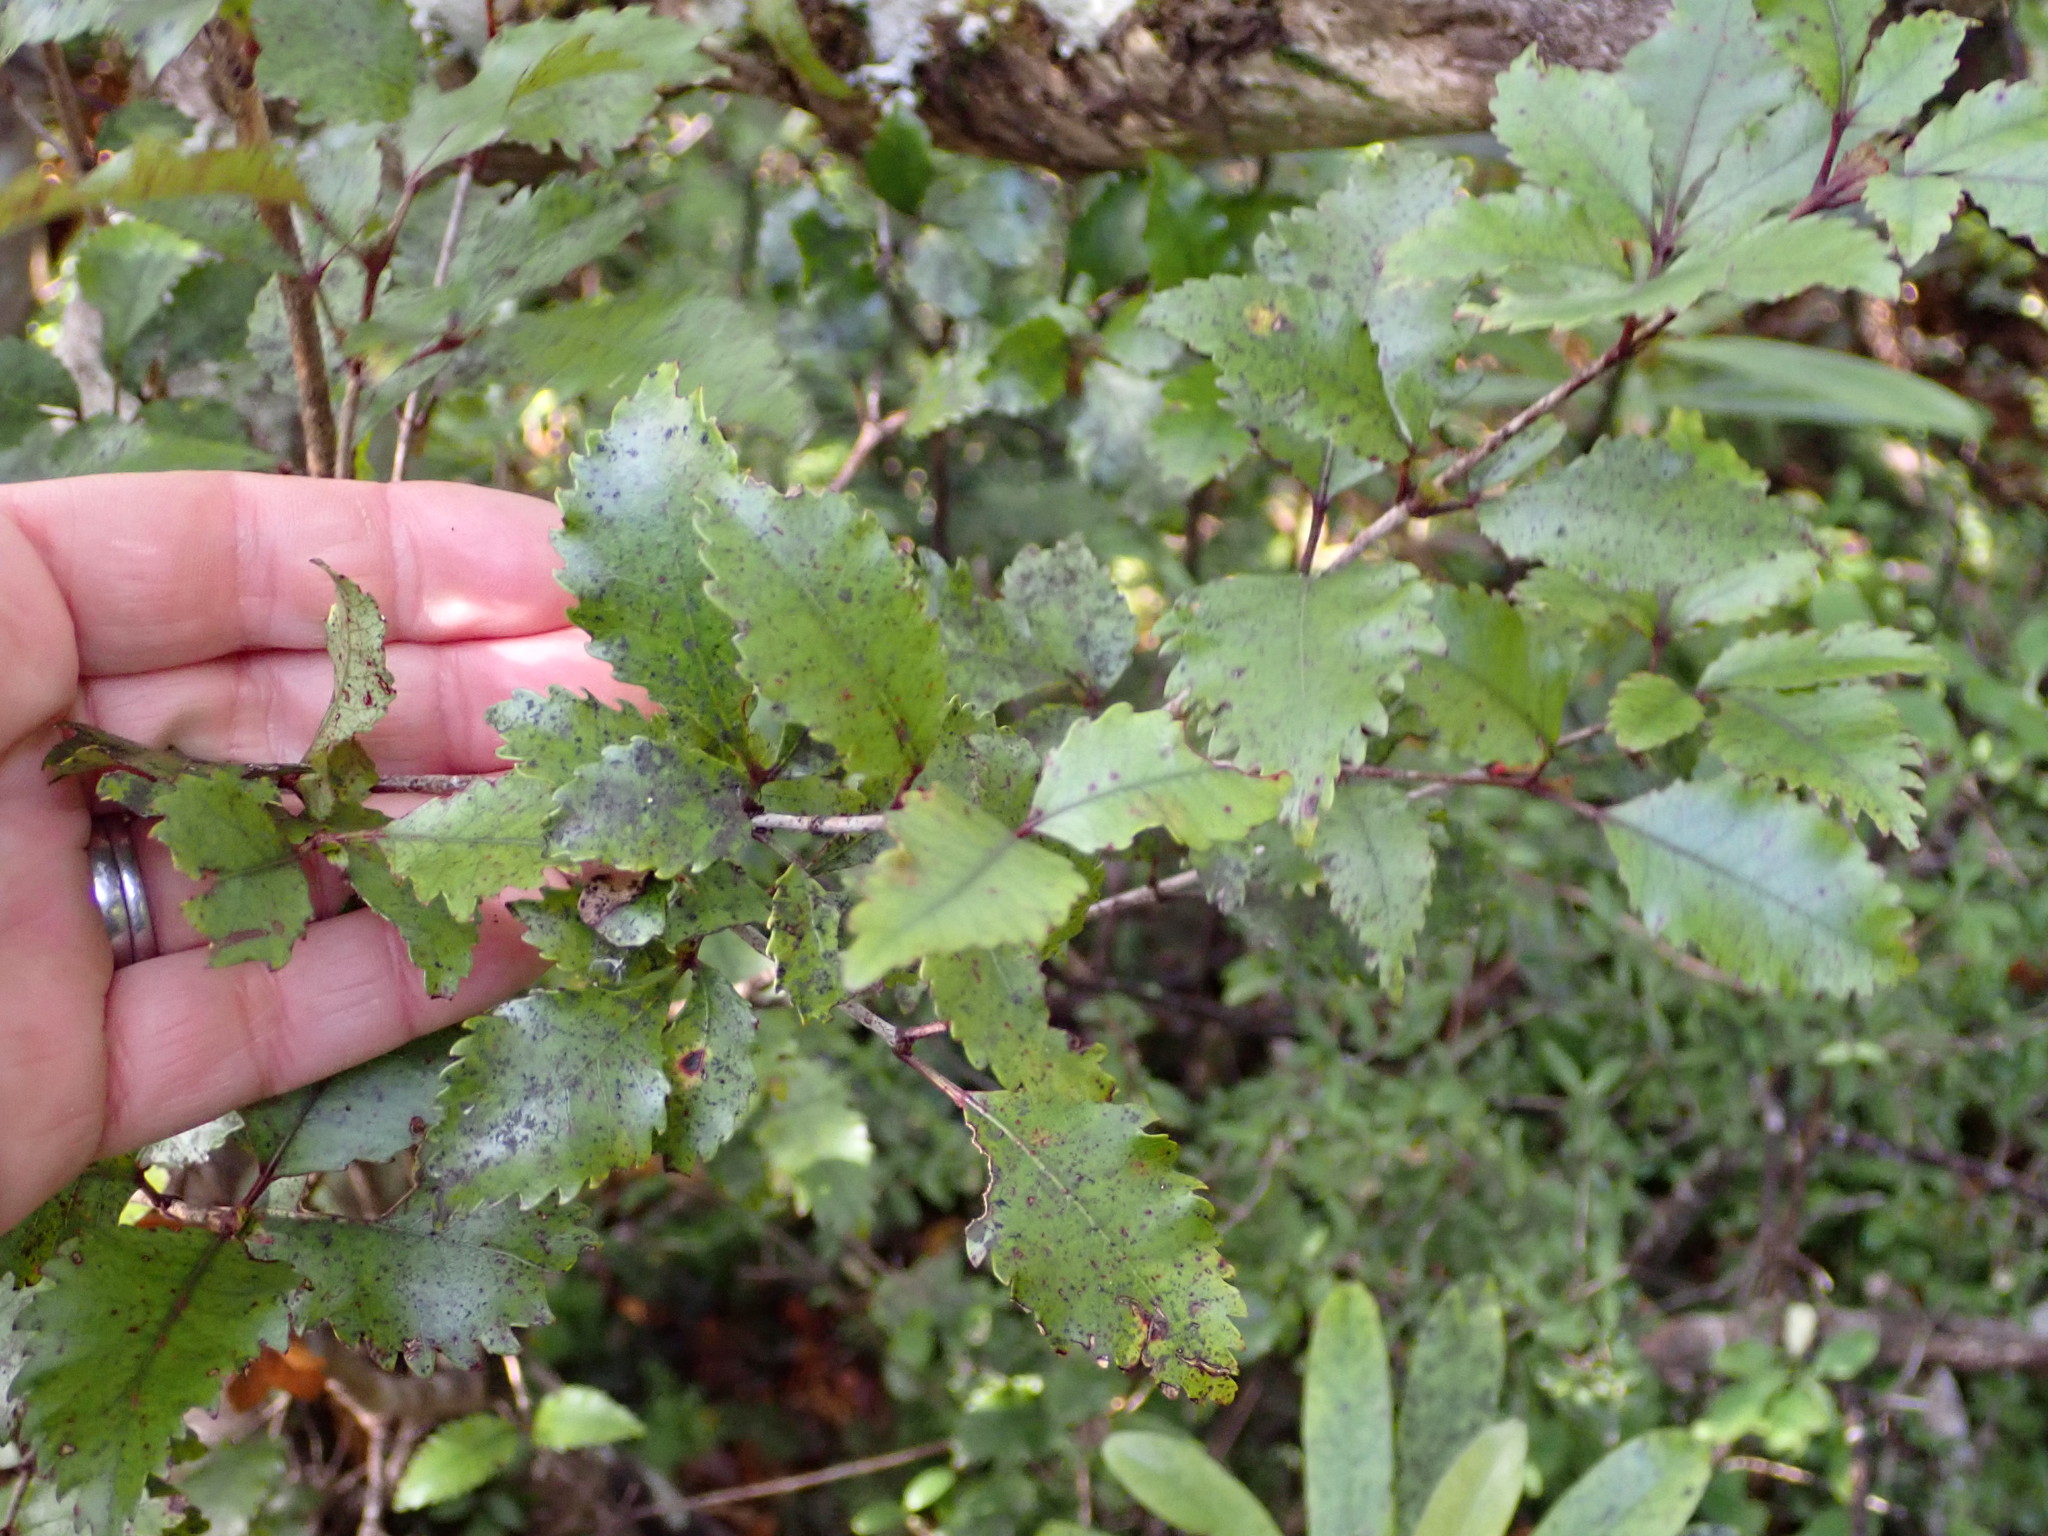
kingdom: Plantae
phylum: Tracheophyta
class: Magnoliopsida
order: Oxalidales
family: Cunoniaceae
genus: Pterophylla
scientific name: Pterophylla racemosa
